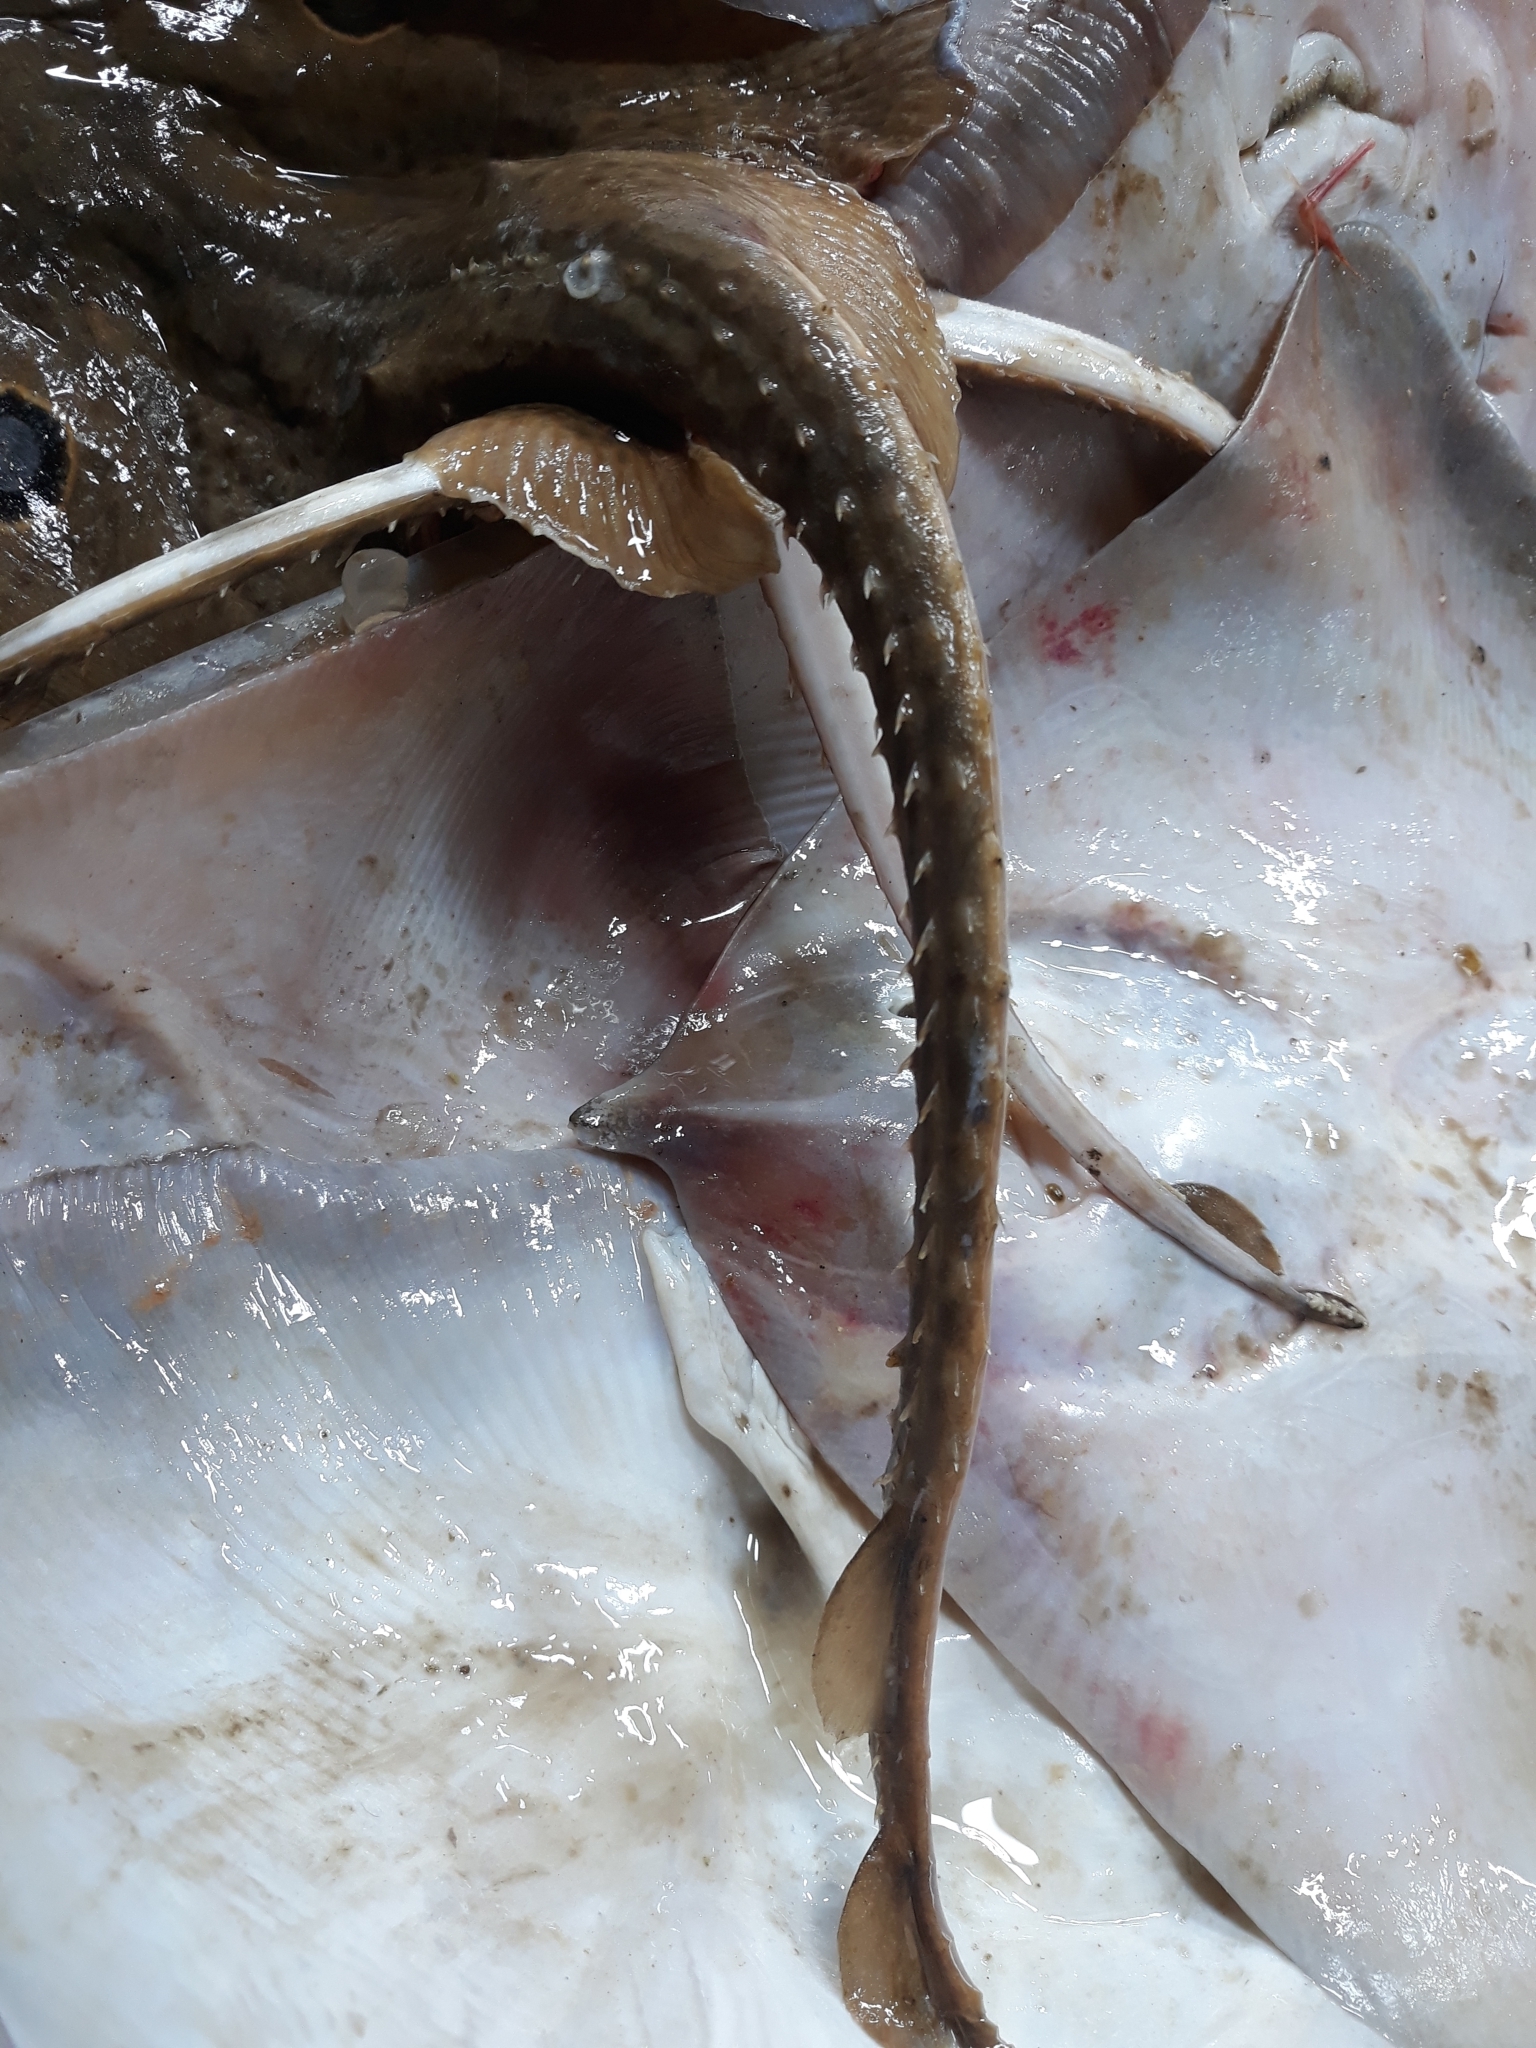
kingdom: Animalia
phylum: Chordata
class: Elasmobranchii
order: Rajiformes
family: Rajidae
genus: Raja
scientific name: Raja miraletus
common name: Brown ray
